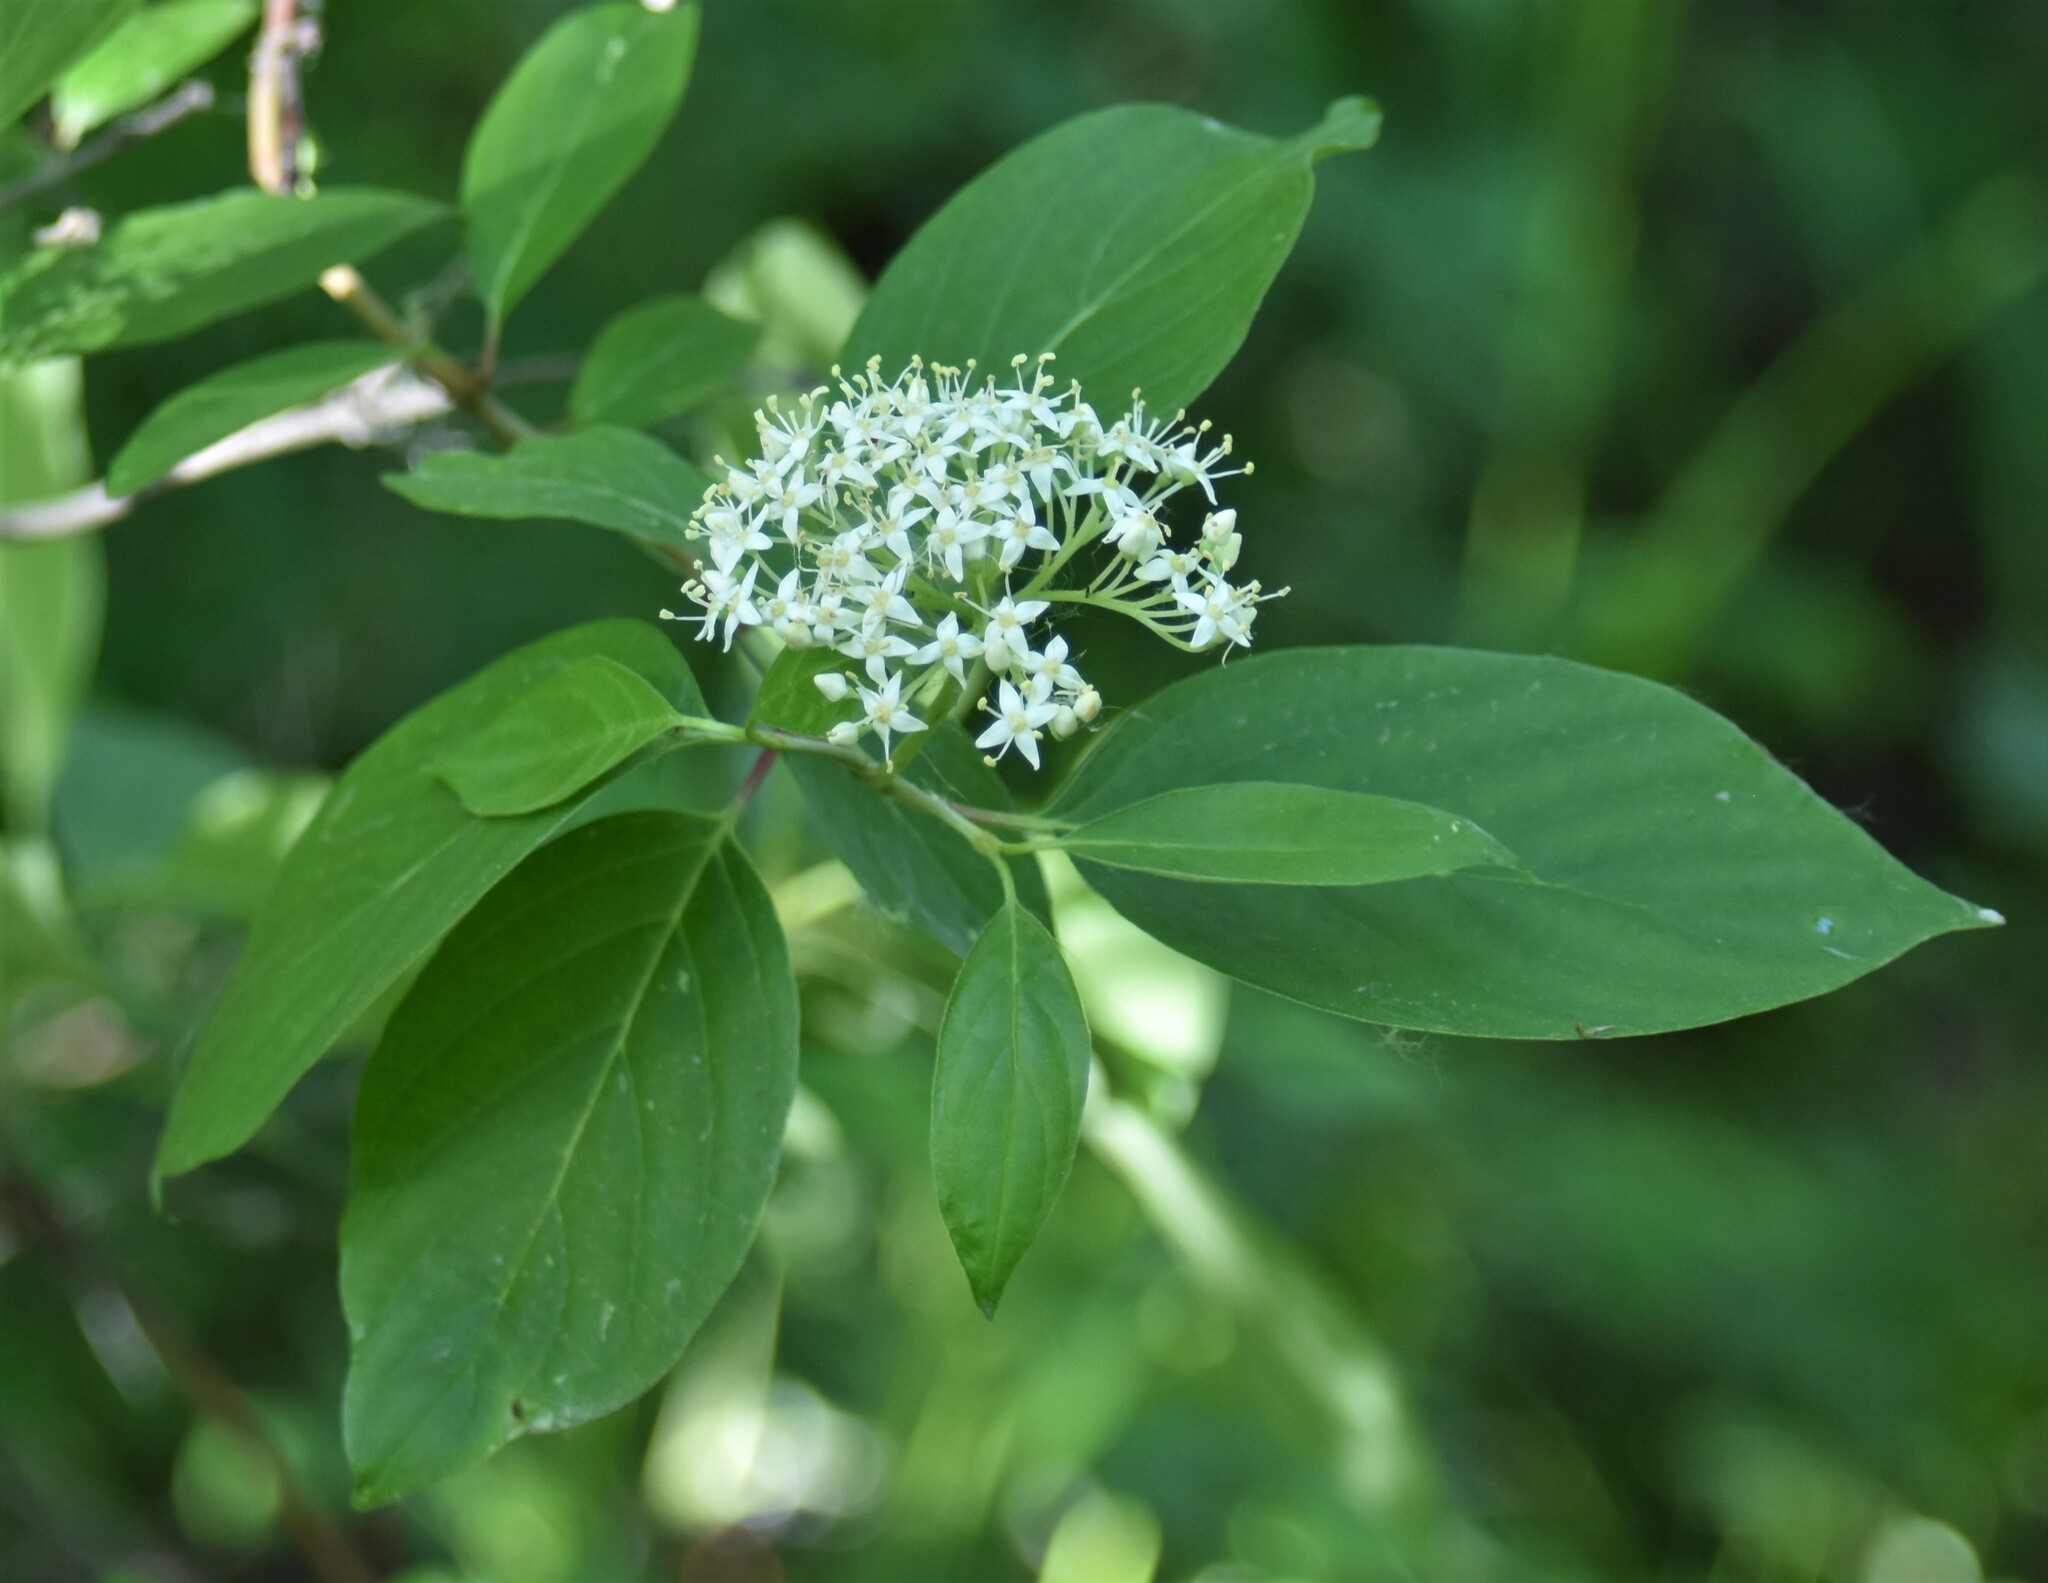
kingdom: Plantae
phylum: Tracheophyta
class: Magnoliopsida
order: Cornales
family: Cornaceae
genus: Cornus
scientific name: Cornus sericea
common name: Red-osier dogwood
